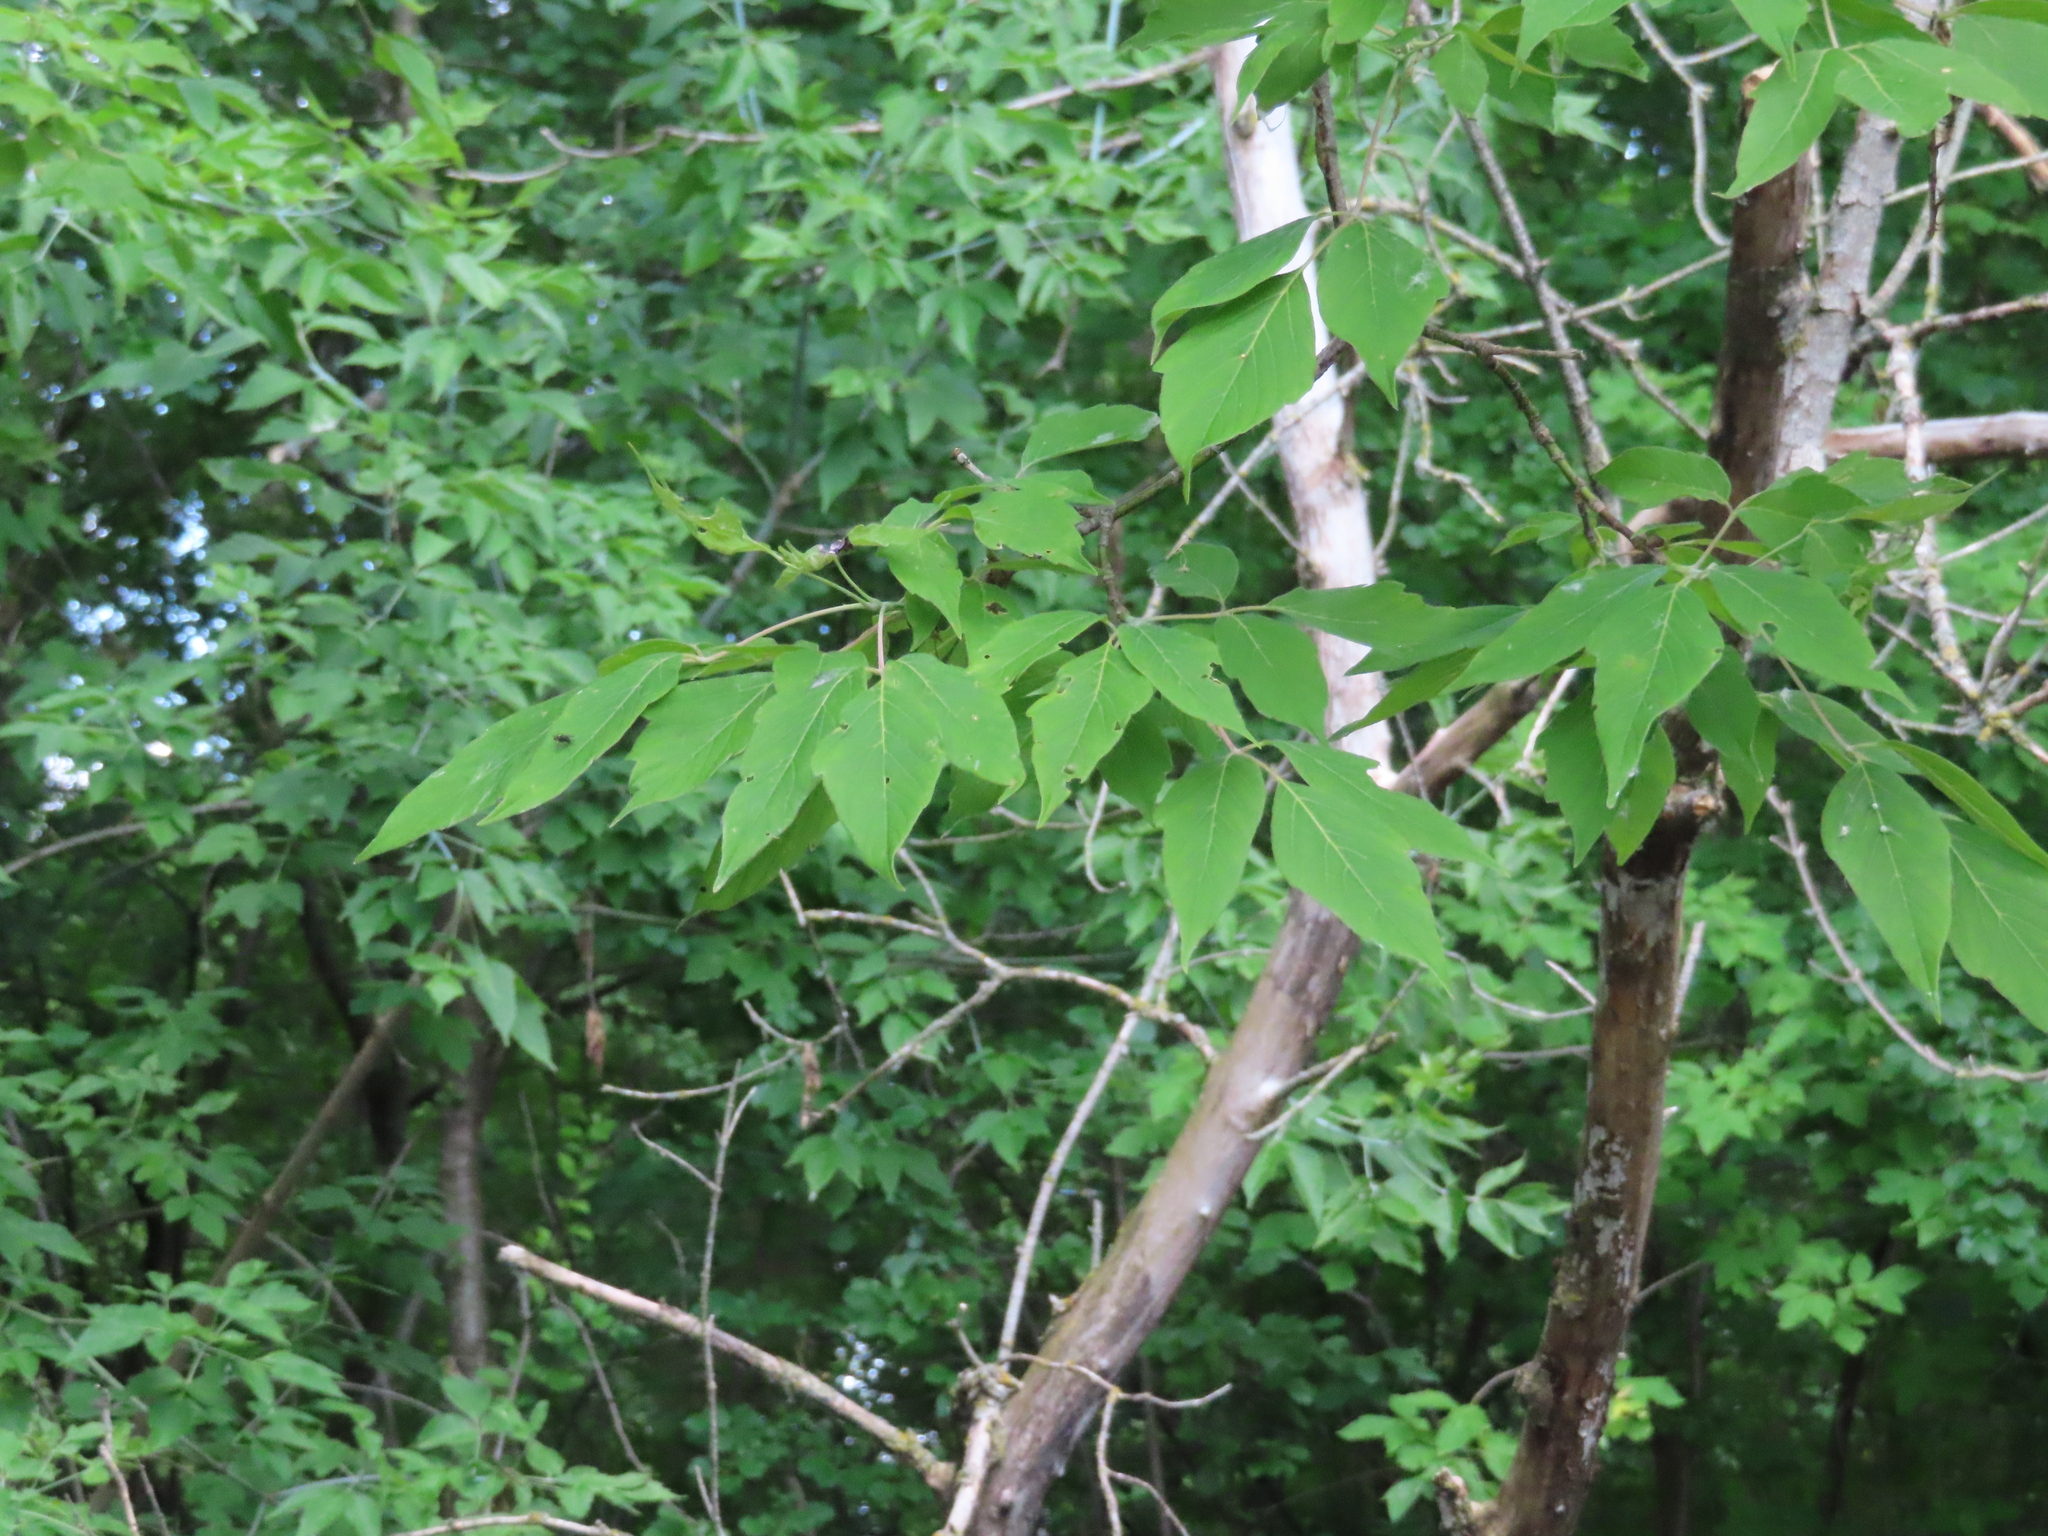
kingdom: Plantae
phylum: Tracheophyta
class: Magnoliopsida
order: Sapindales
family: Sapindaceae
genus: Acer
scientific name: Acer negundo
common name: Ashleaf maple
